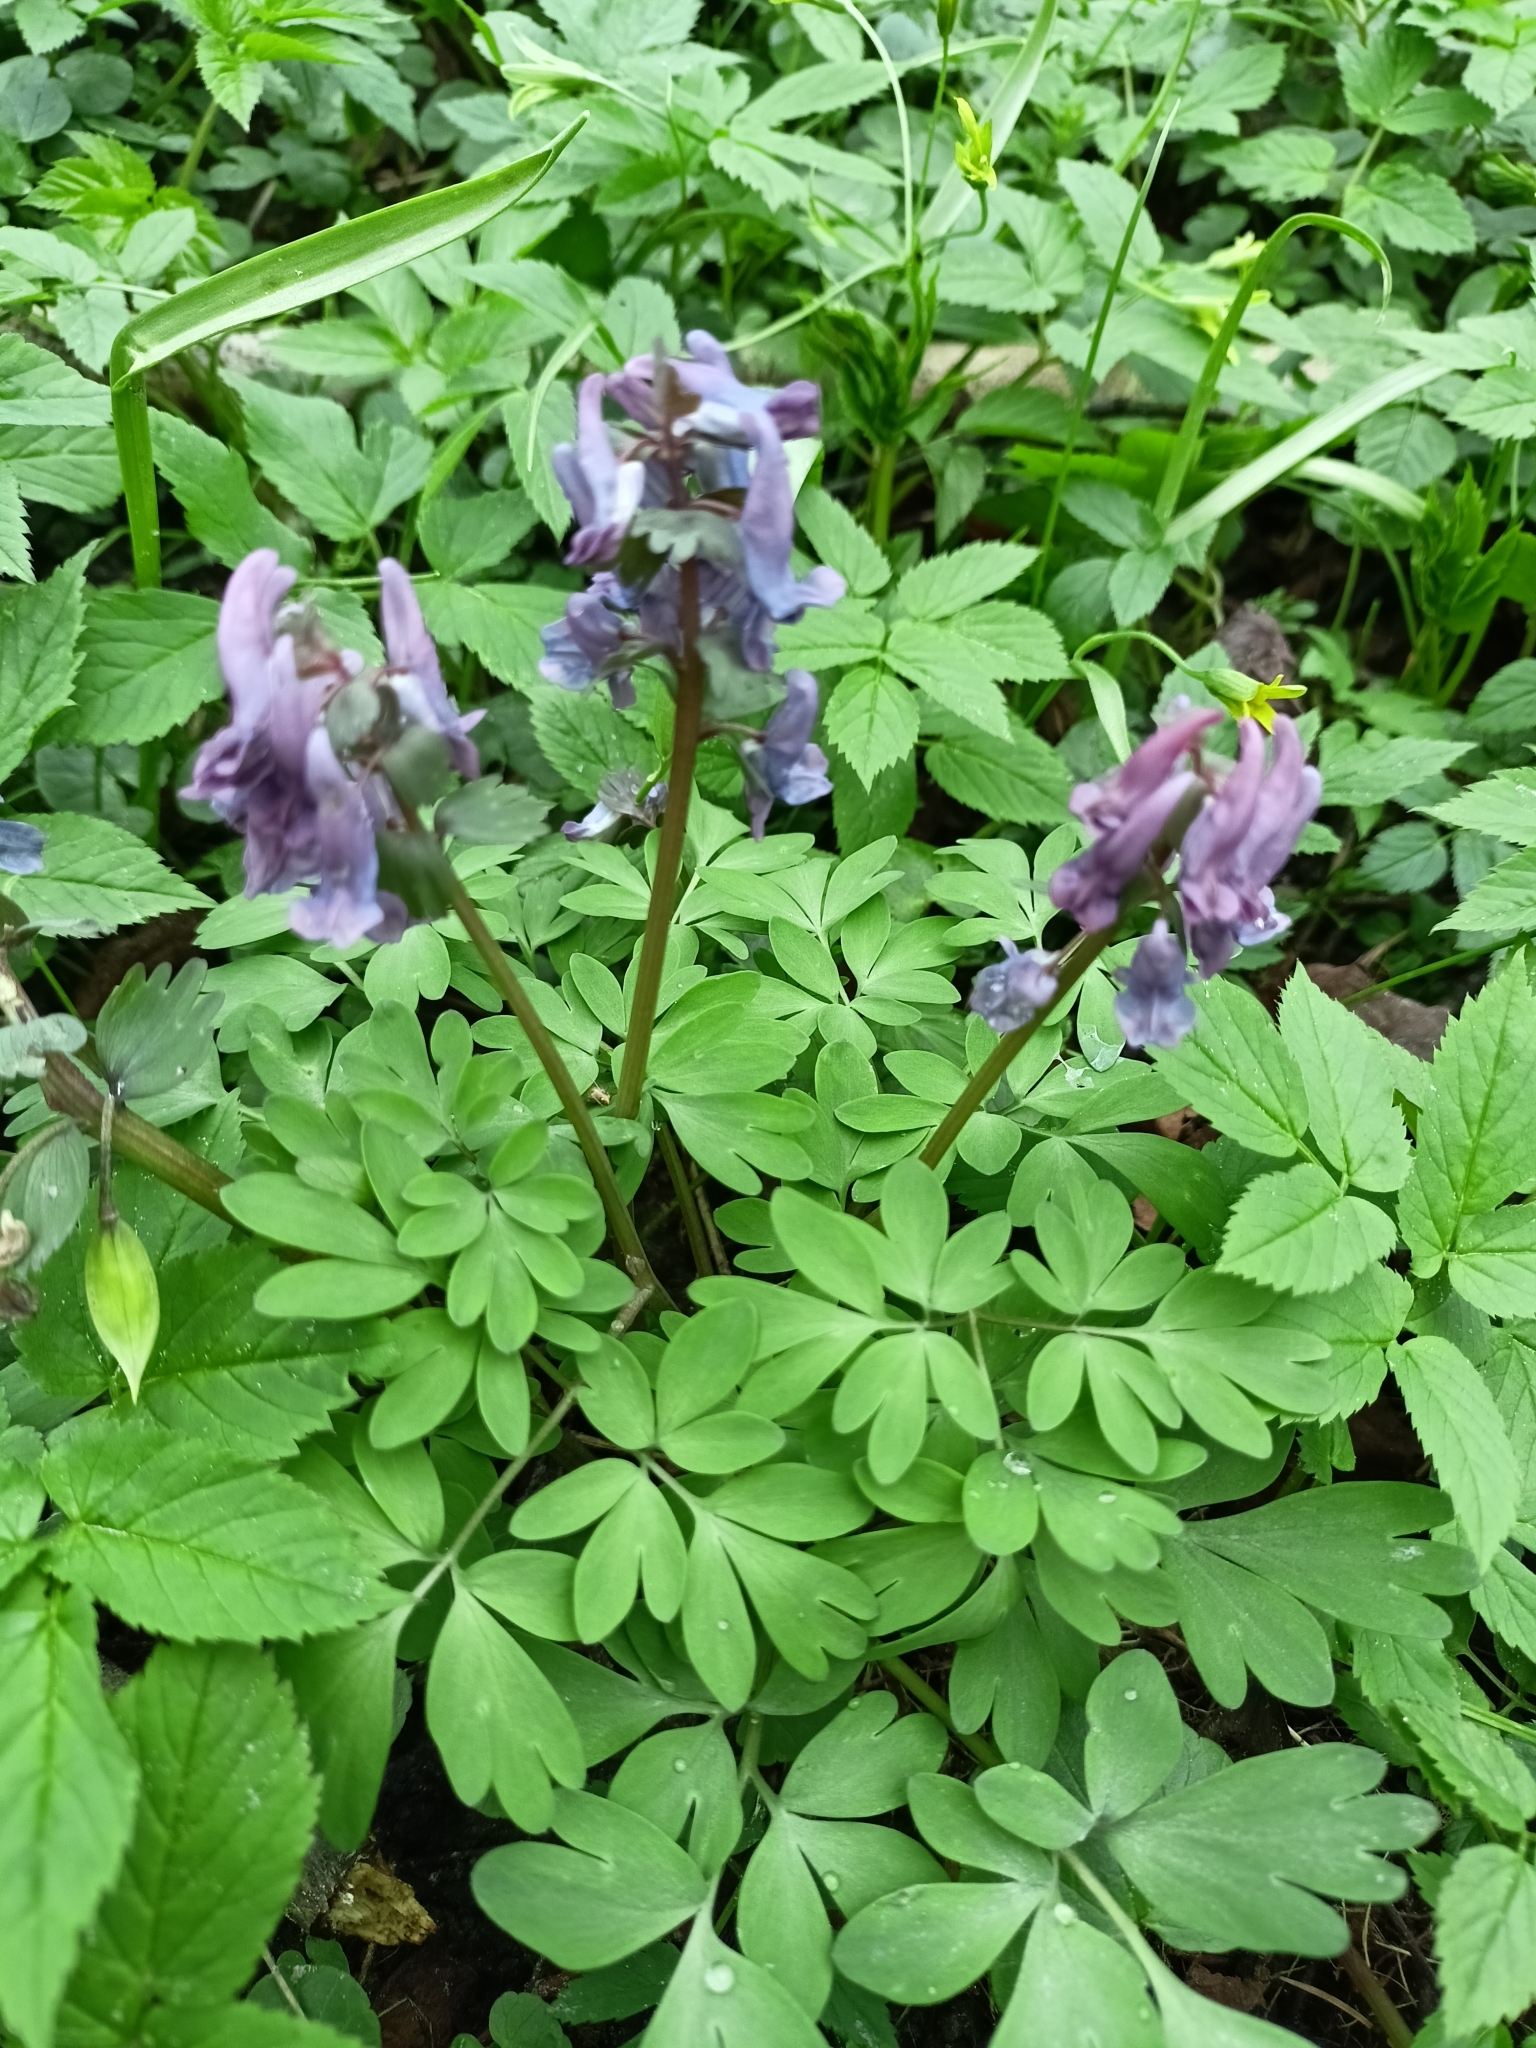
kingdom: Plantae
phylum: Tracheophyta
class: Magnoliopsida
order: Ranunculales
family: Papaveraceae
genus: Corydalis
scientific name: Corydalis solida
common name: Bird-in-a-bush
